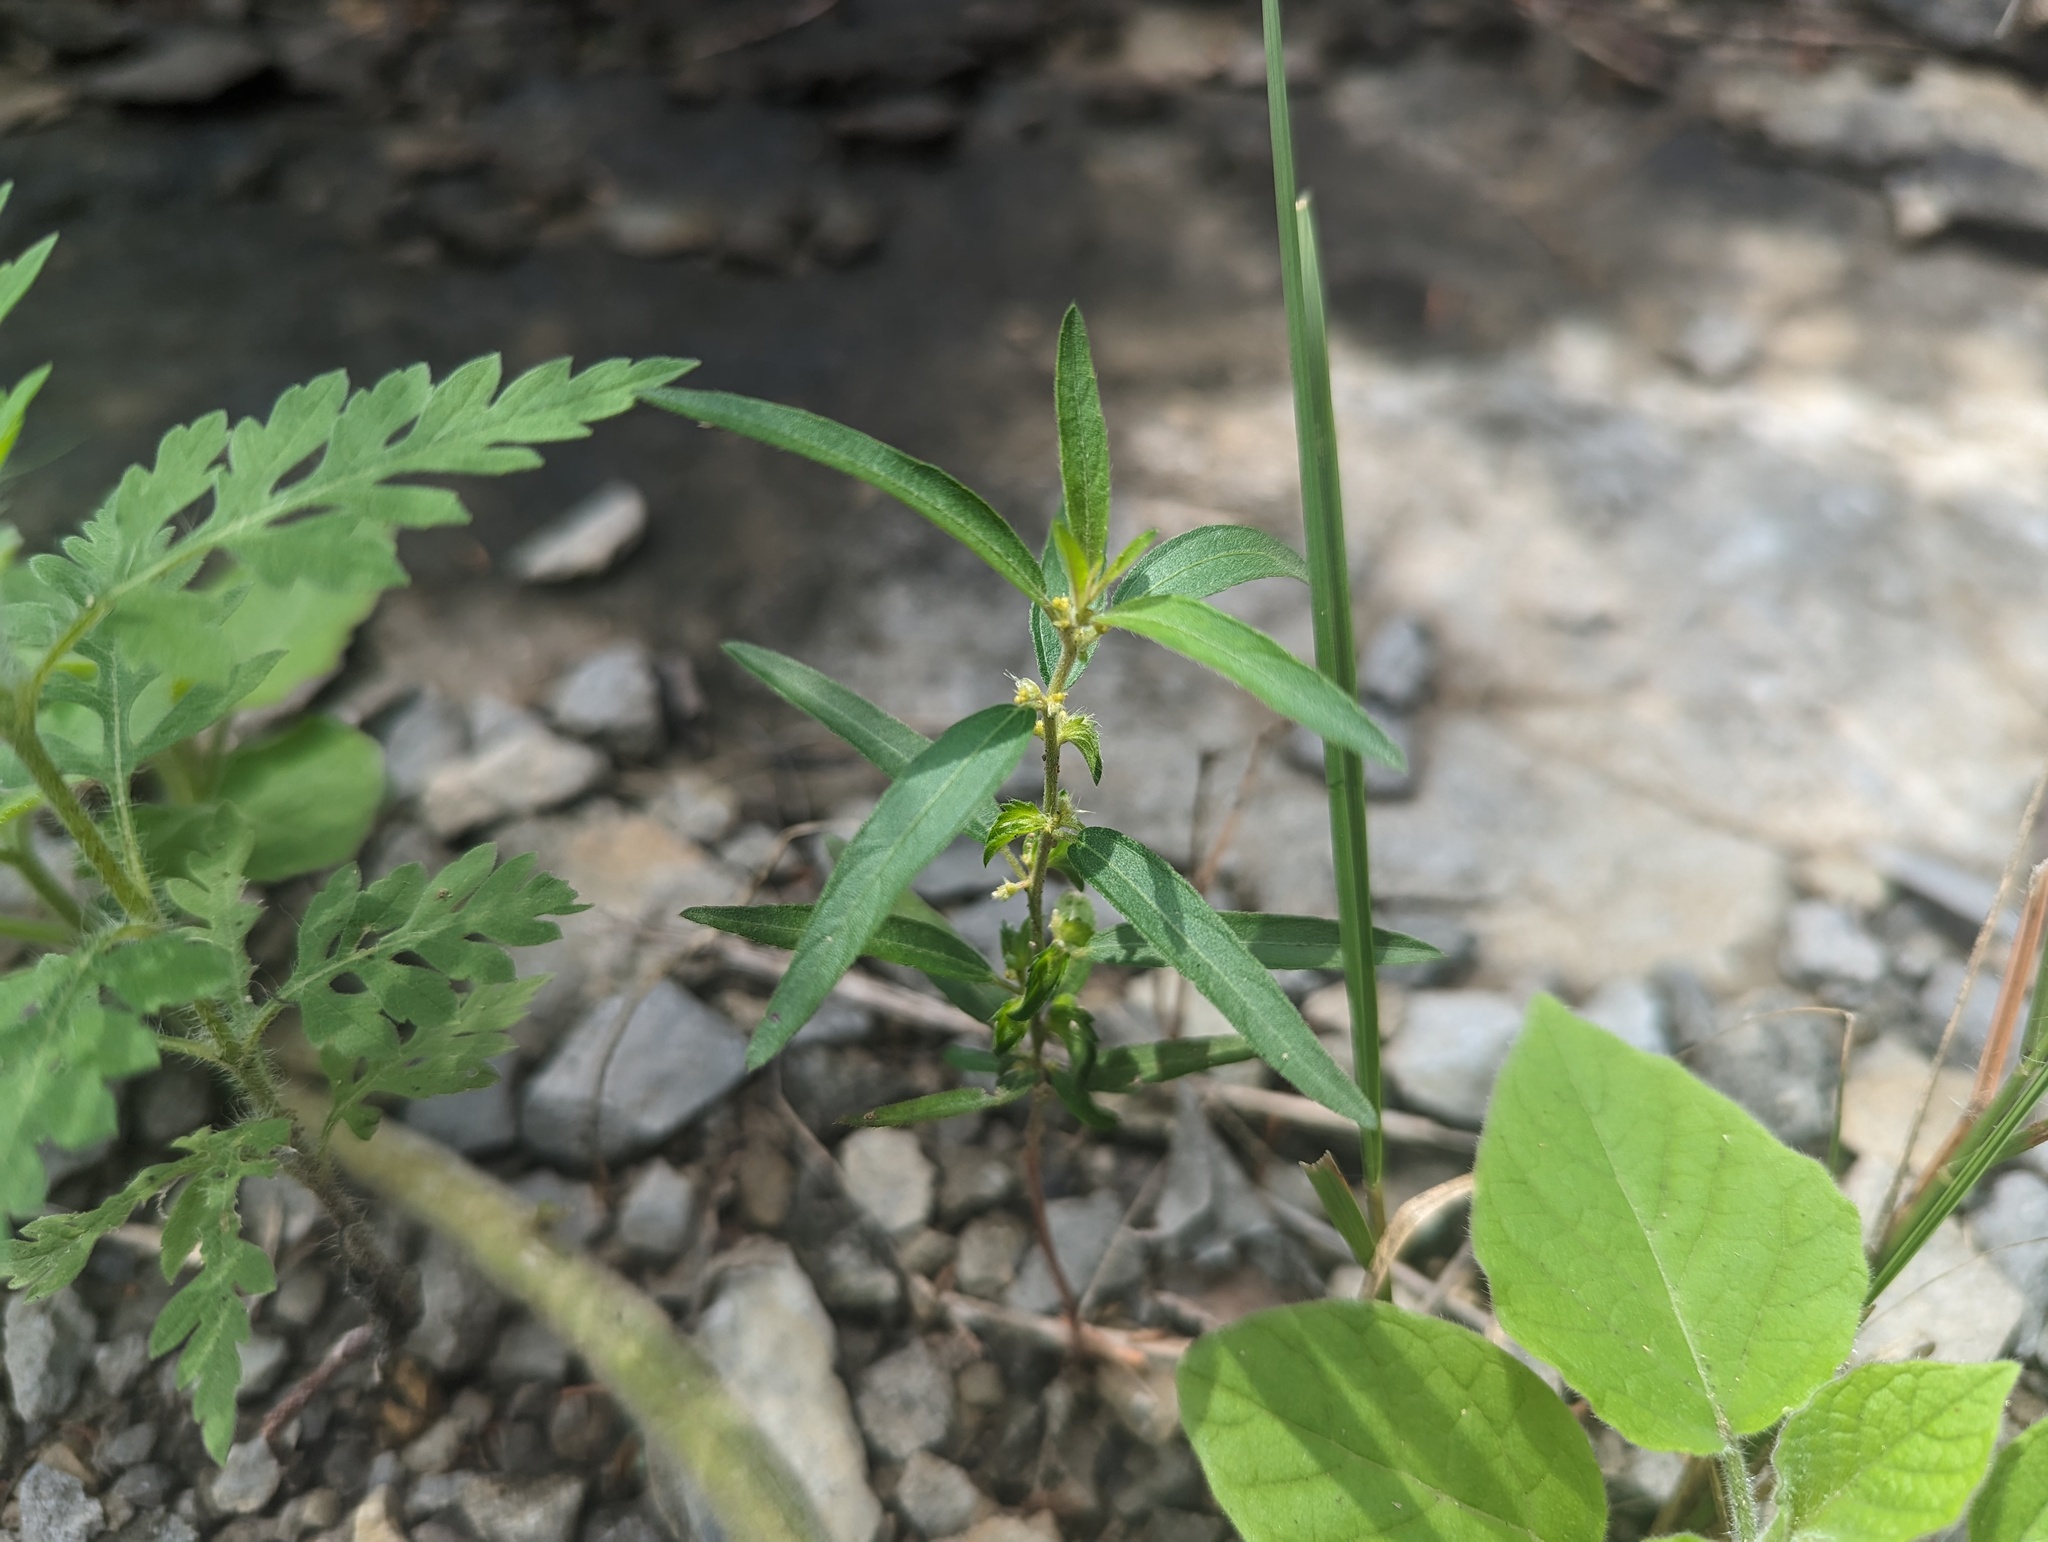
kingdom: Plantae
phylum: Tracheophyta
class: Magnoliopsida
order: Malpighiales
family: Euphorbiaceae
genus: Acalypha
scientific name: Acalypha gracilens
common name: Slender three-seeded mercury
